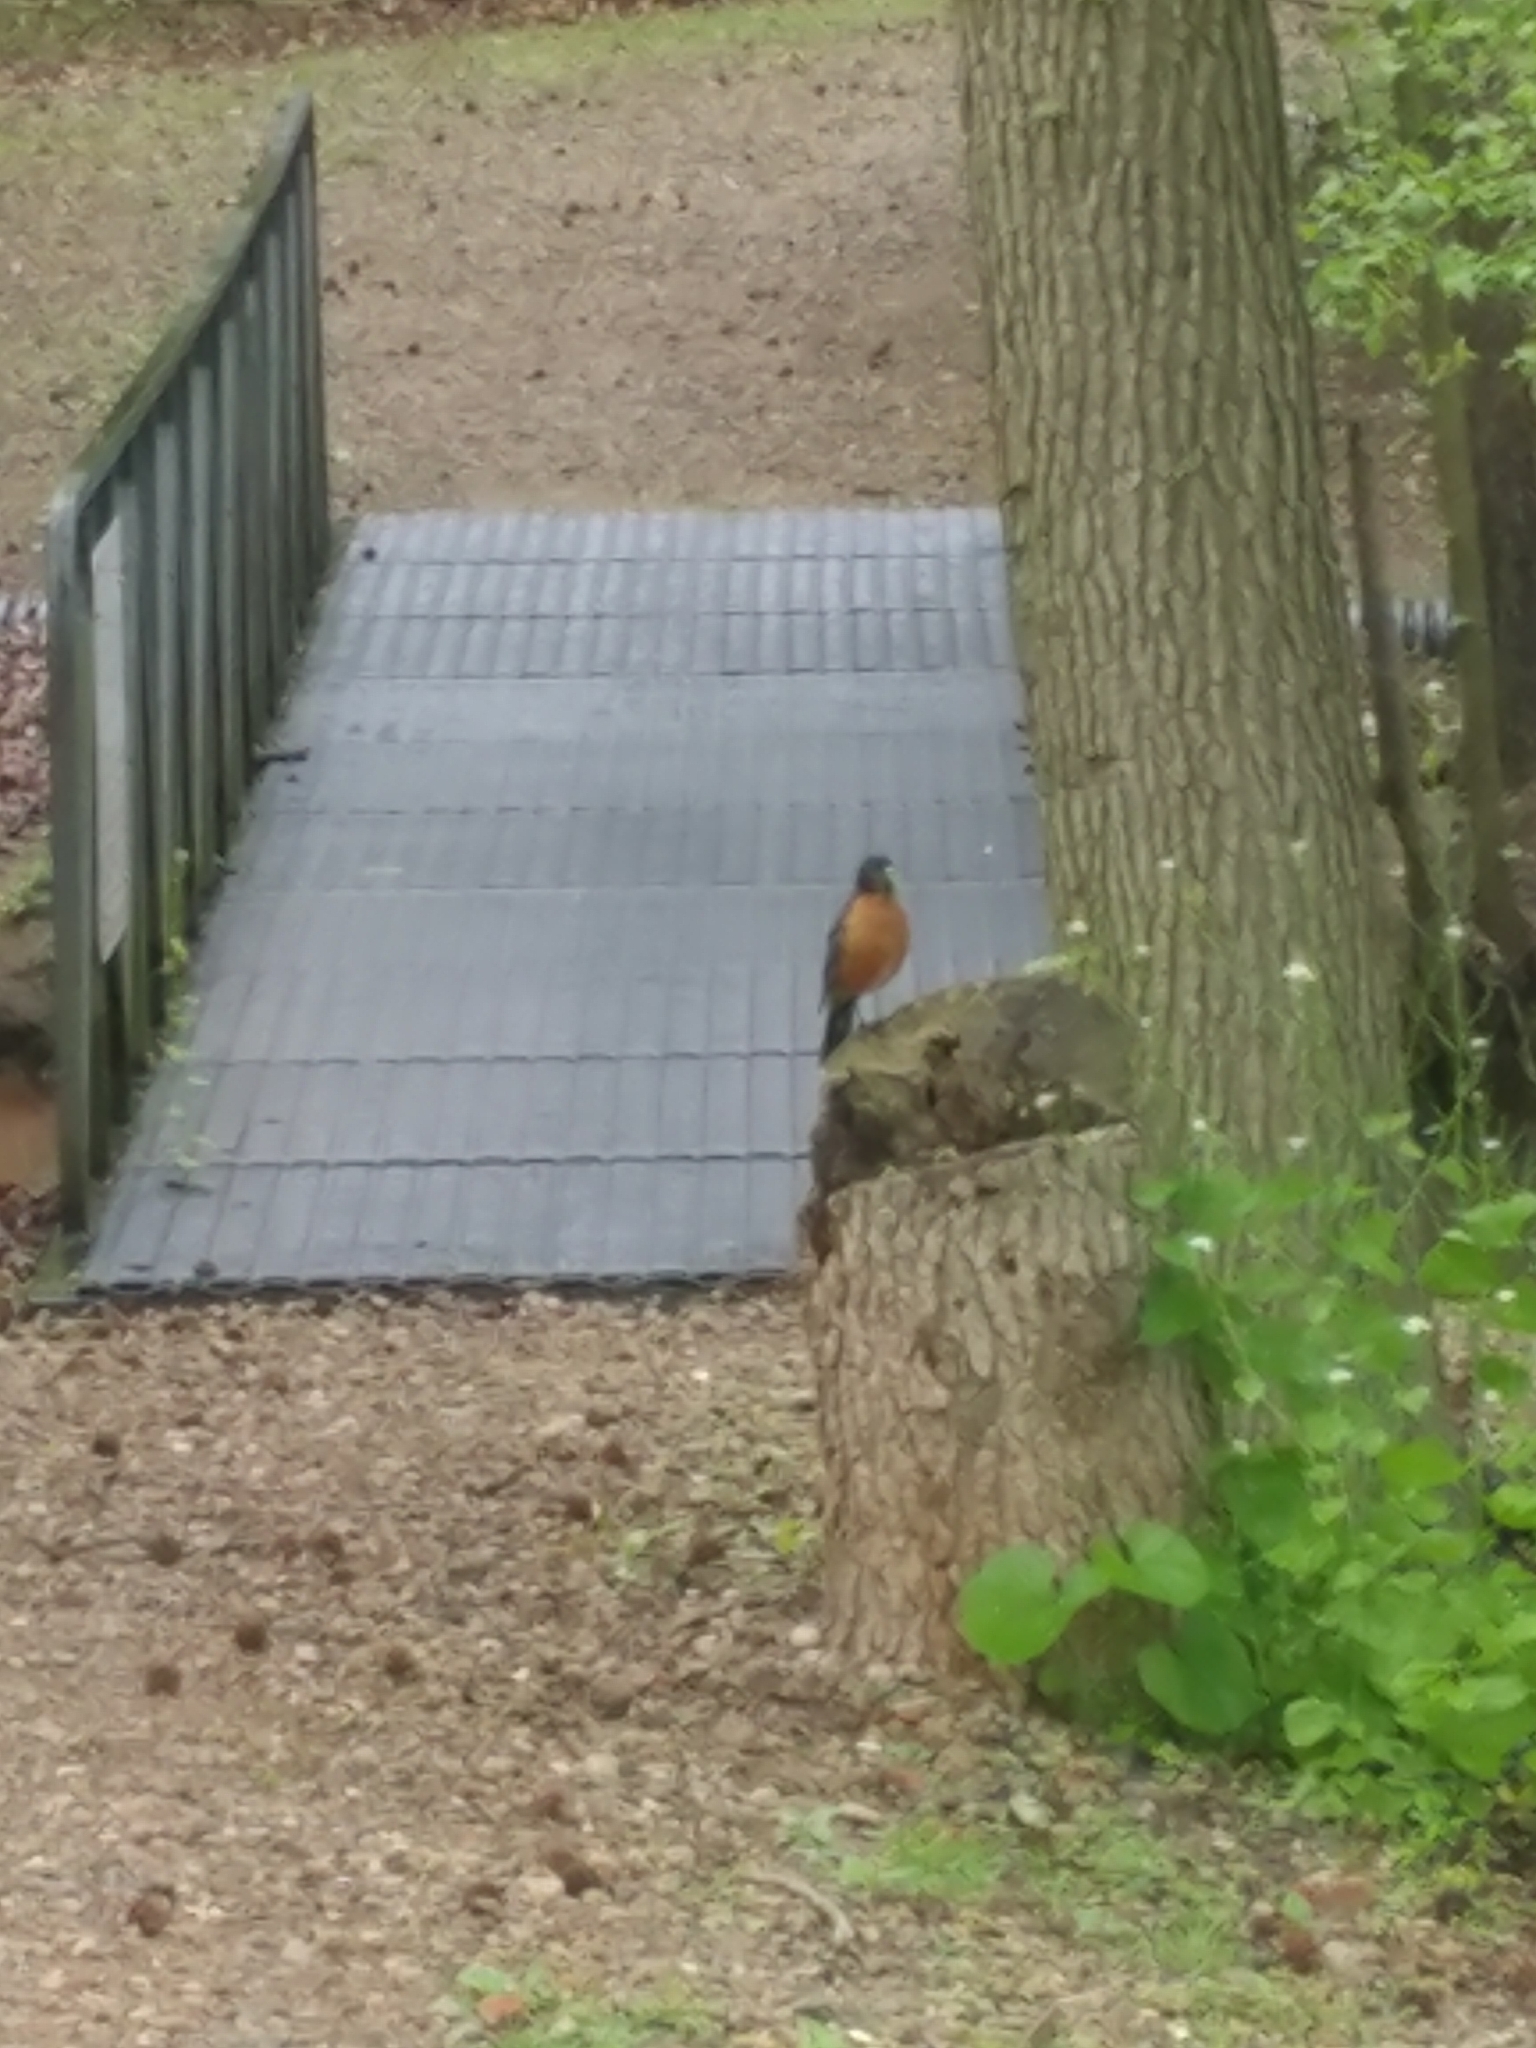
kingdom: Animalia
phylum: Chordata
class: Aves
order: Passeriformes
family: Turdidae
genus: Turdus
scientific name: Turdus migratorius
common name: American robin
